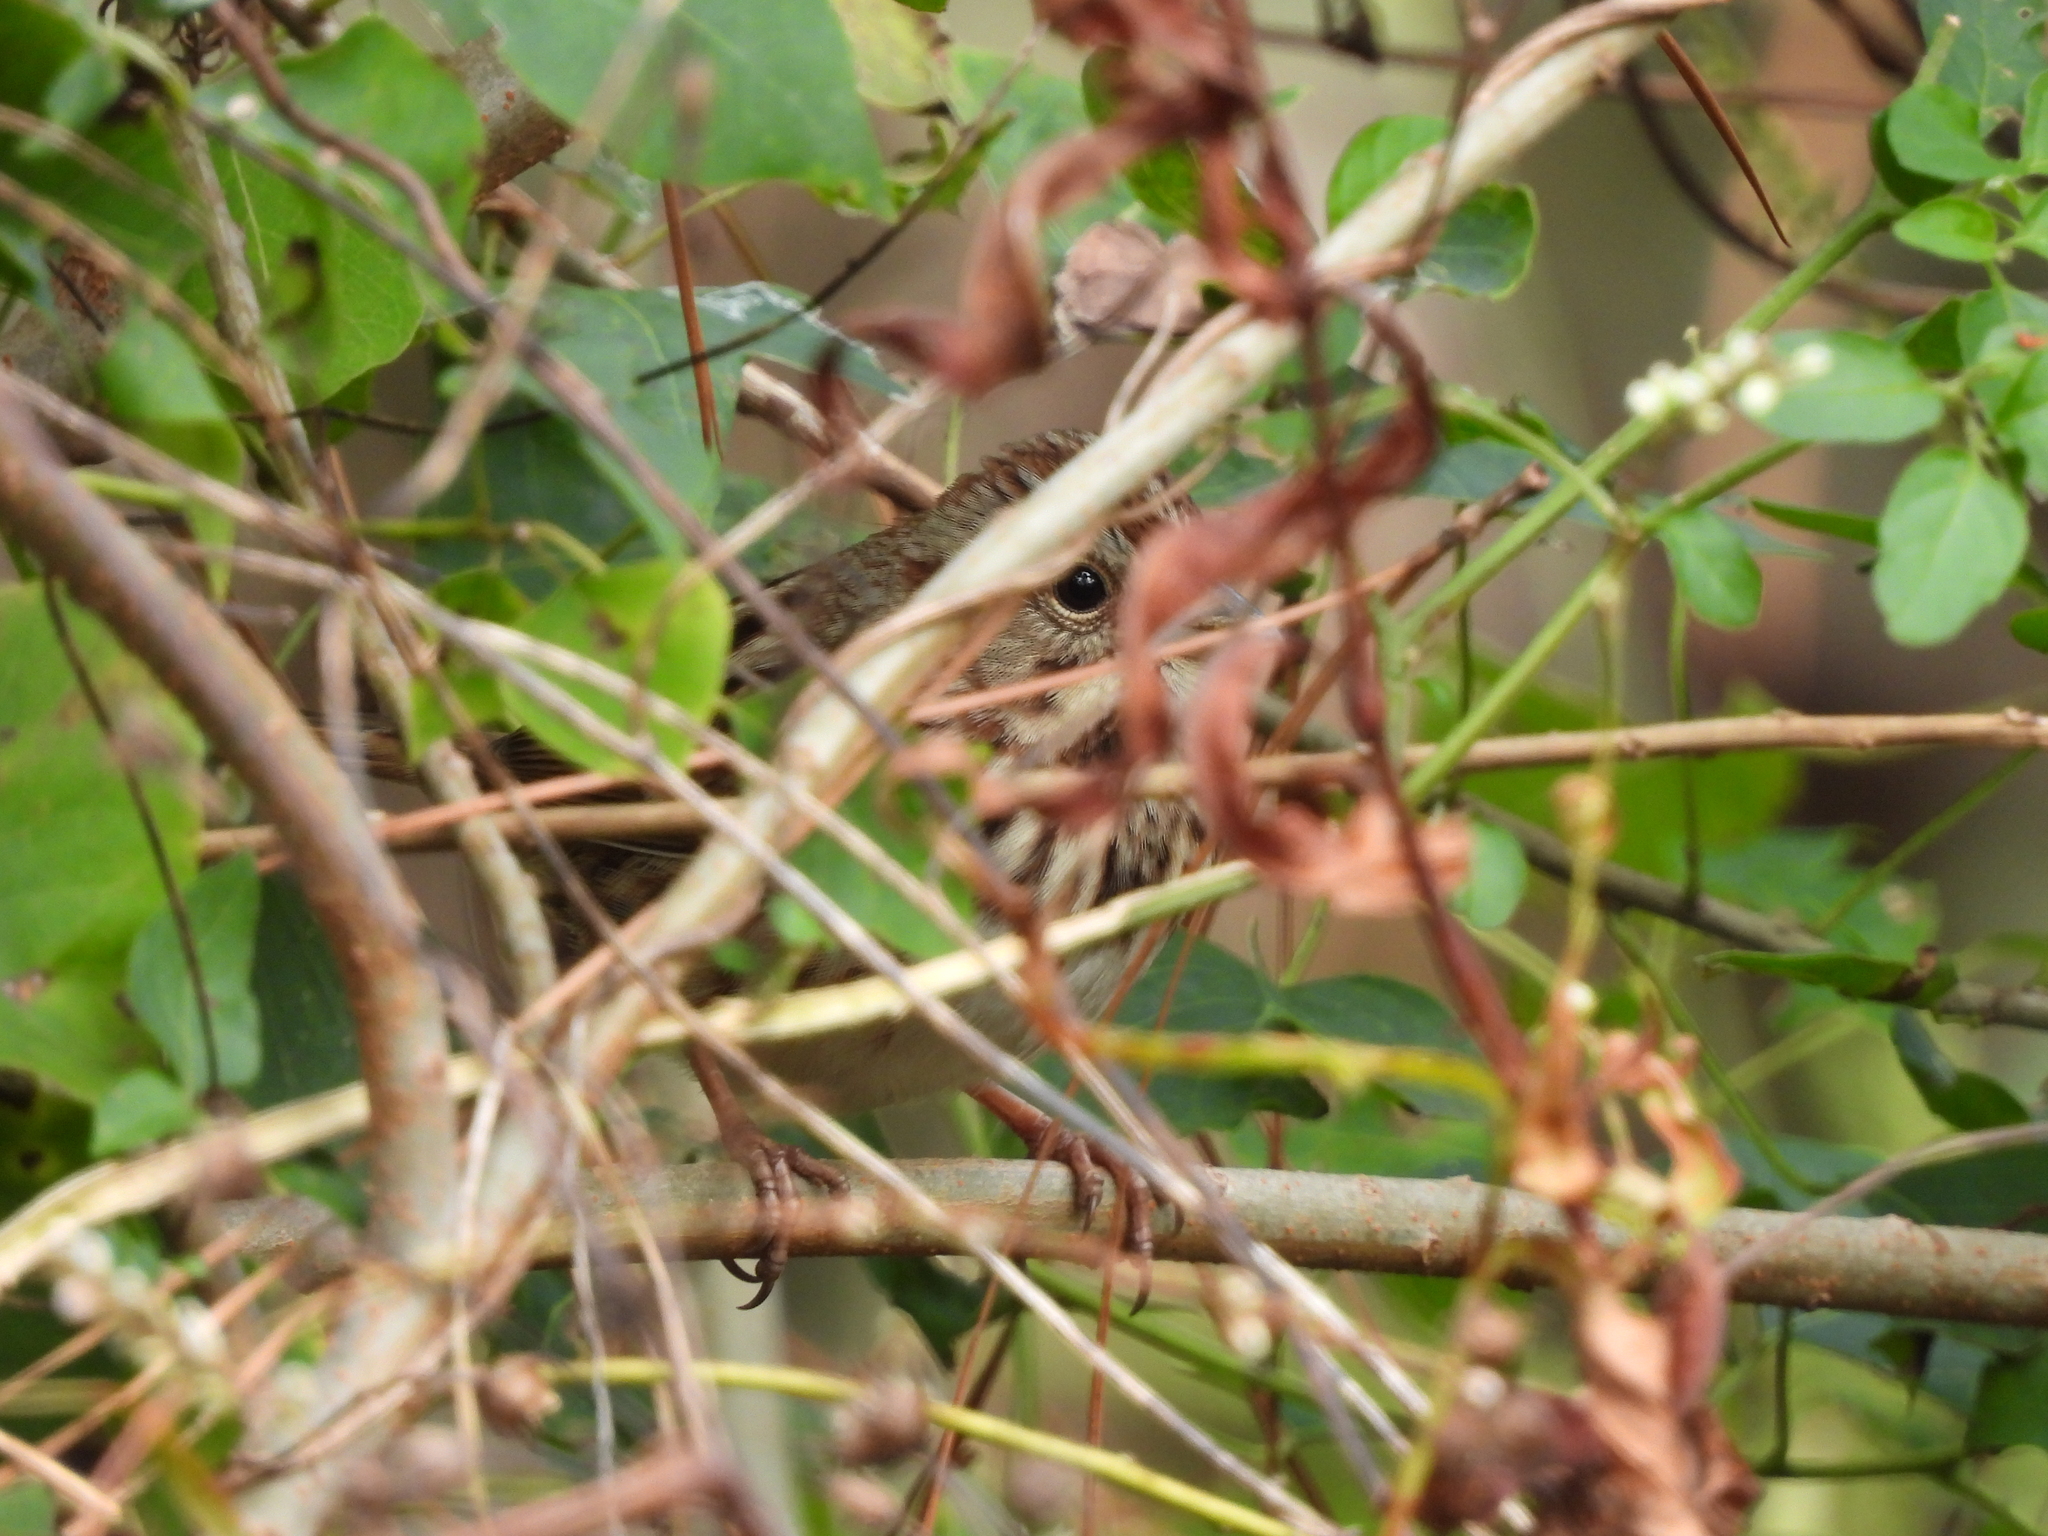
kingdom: Animalia
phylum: Chordata
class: Aves
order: Passeriformes
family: Passerellidae
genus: Melospiza
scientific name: Melospiza melodia
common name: Song sparrow
